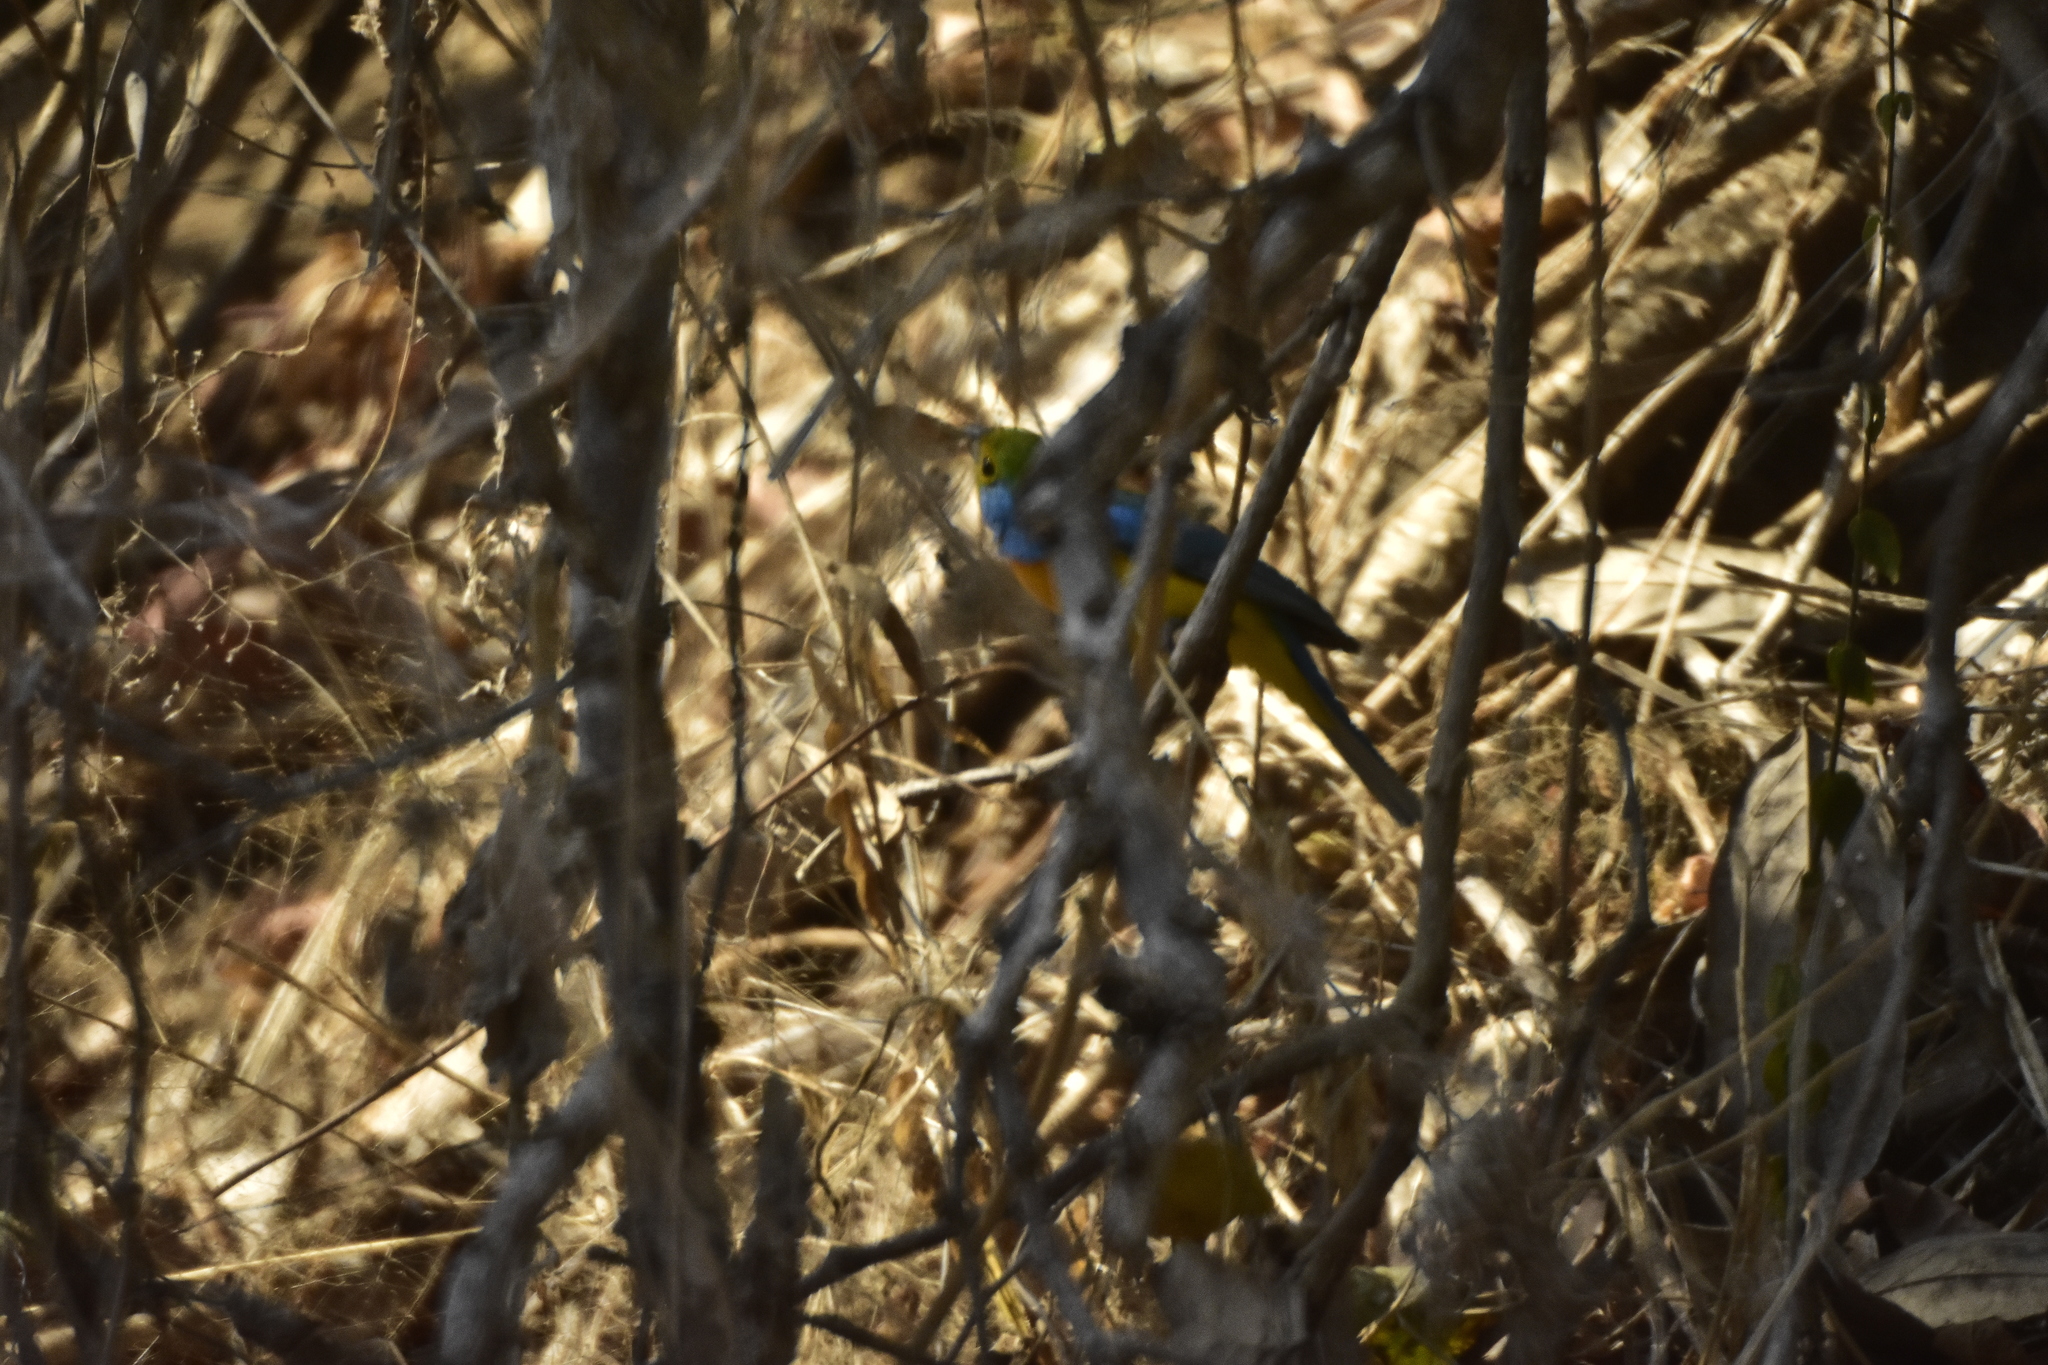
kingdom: Animalia
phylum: Chordata
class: Aves
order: Passeriformes
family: Cardinalidae
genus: Passerina
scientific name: Passerina leclancherii
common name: Orange-breasted bunting
